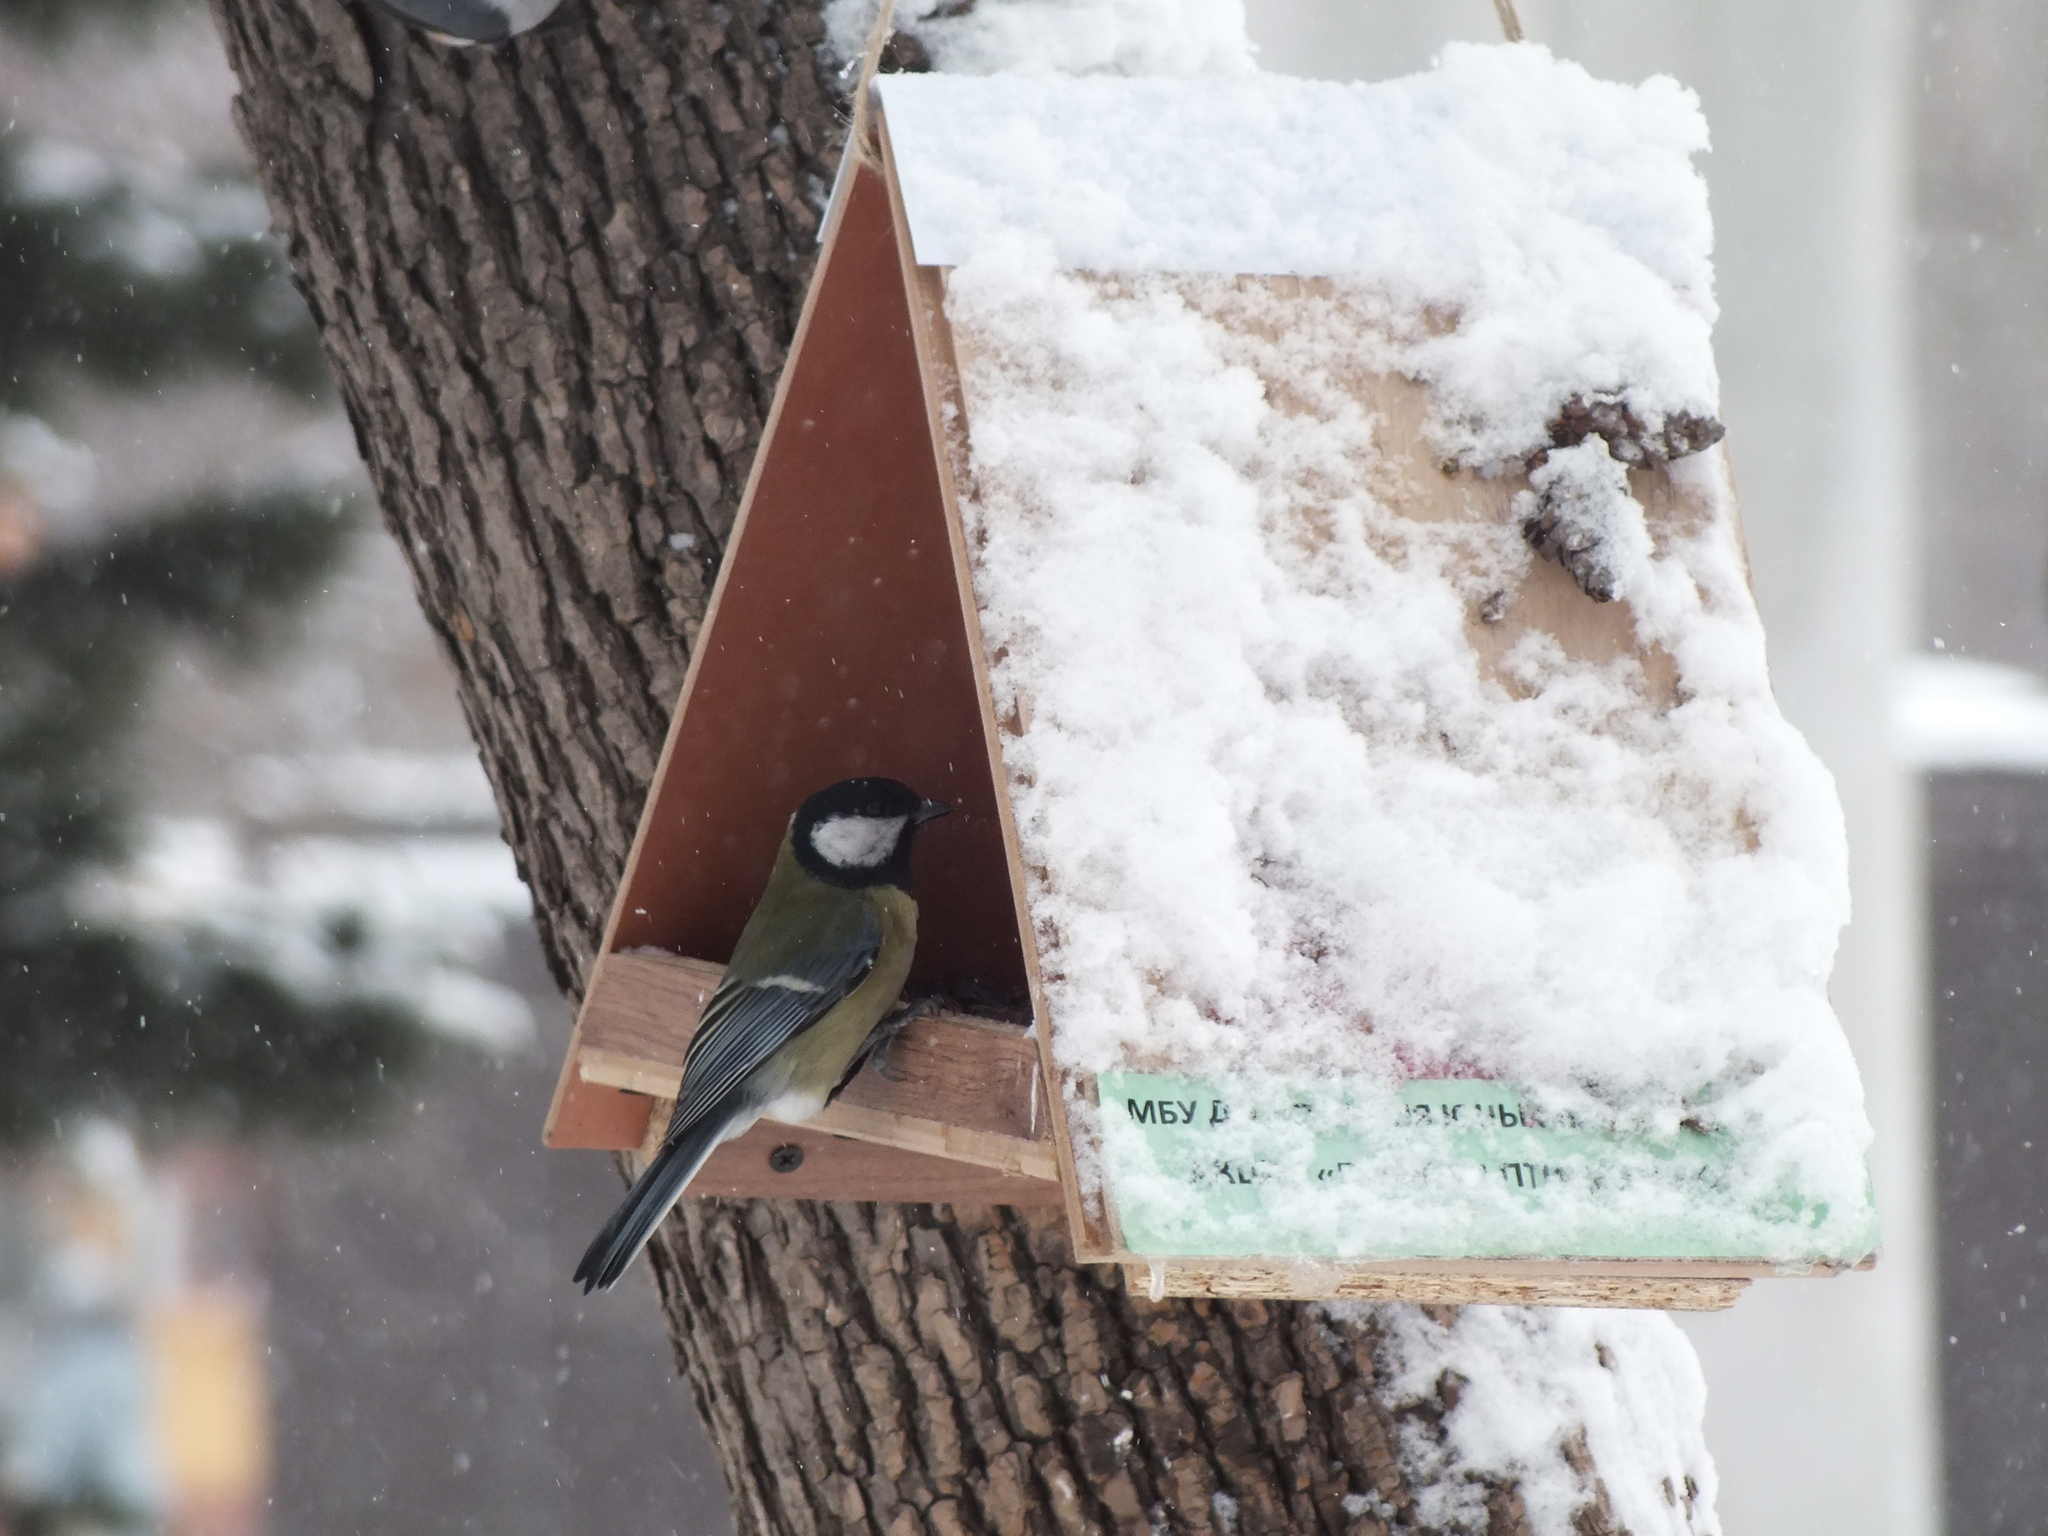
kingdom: Animalia
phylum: Chordata
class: Aves
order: Passeriformes
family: Paridae
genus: Parus
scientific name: Parus major
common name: Great tit
